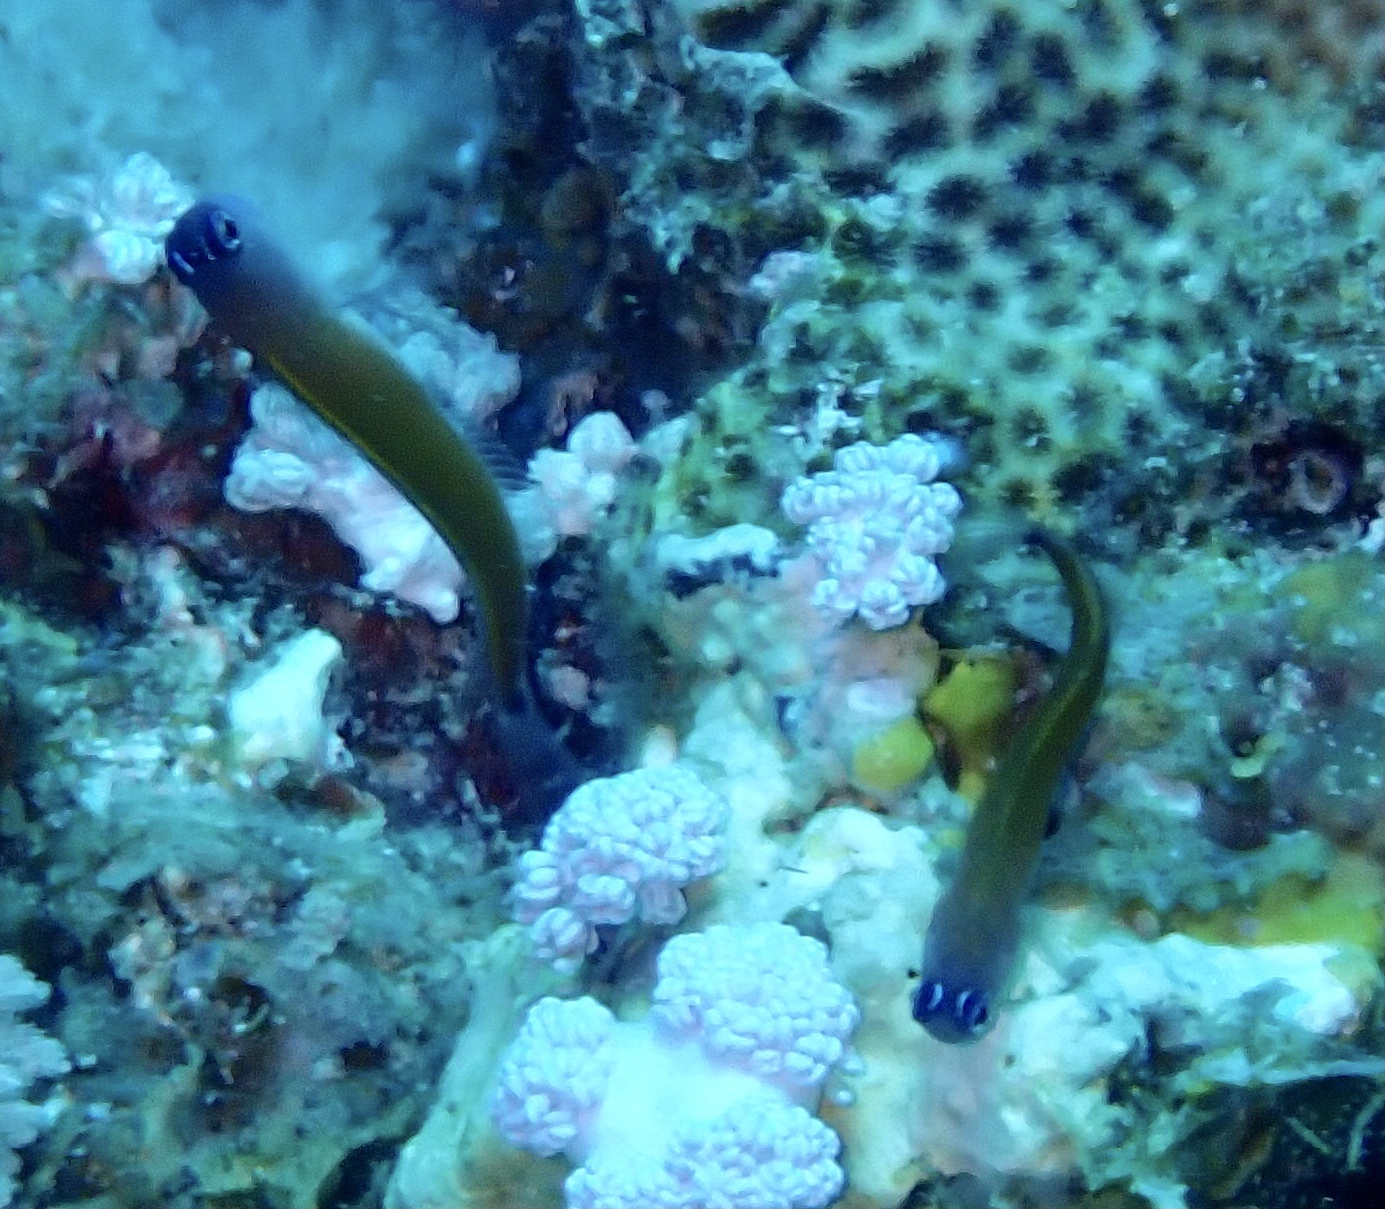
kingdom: Animalia
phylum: Chordata
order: Perciformes
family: Blenniidae
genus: Ecsenius
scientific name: Ecsenius aroni
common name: Aron's blenny
